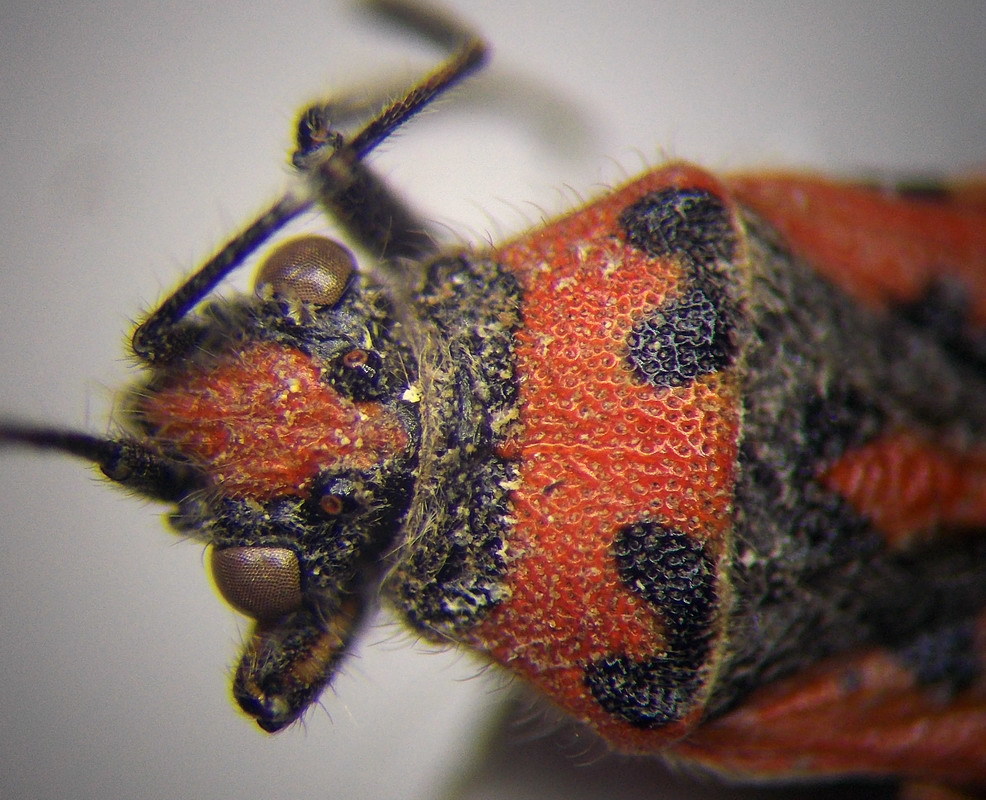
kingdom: Animalia
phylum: Arthropoda
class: Insecta
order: Hemiptera
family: Rhopalidae
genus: Corizus
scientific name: Corizus hyoscyami
